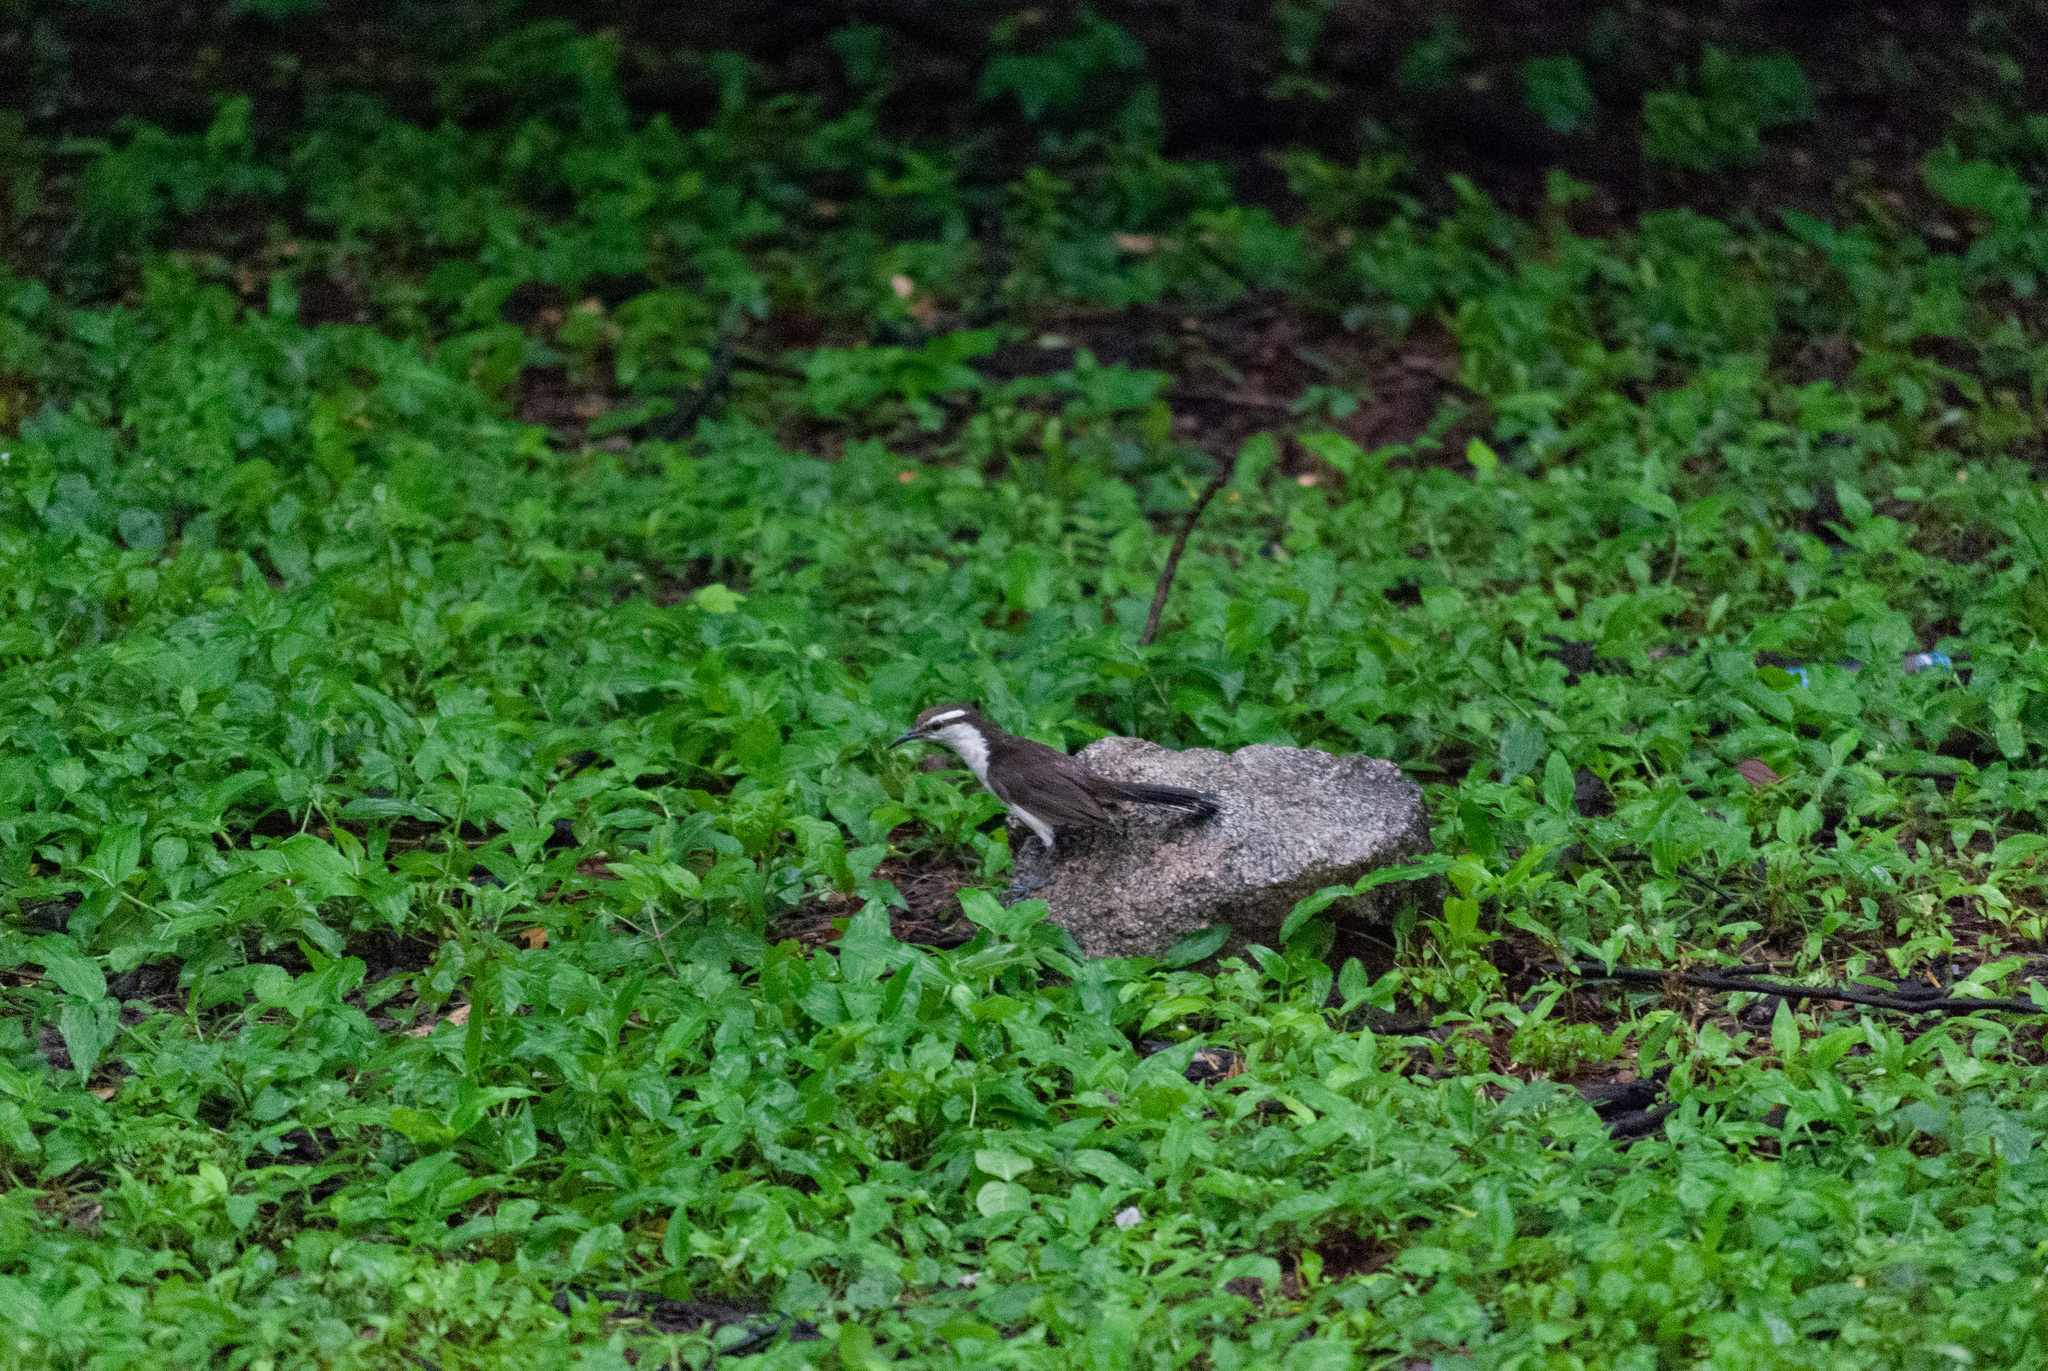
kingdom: Animalia
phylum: Chordata
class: Aves
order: Passeriformes
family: Troglodytidae
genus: Campylorhynchus
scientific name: Campylorhynchus griseus
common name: Bicolored wren
